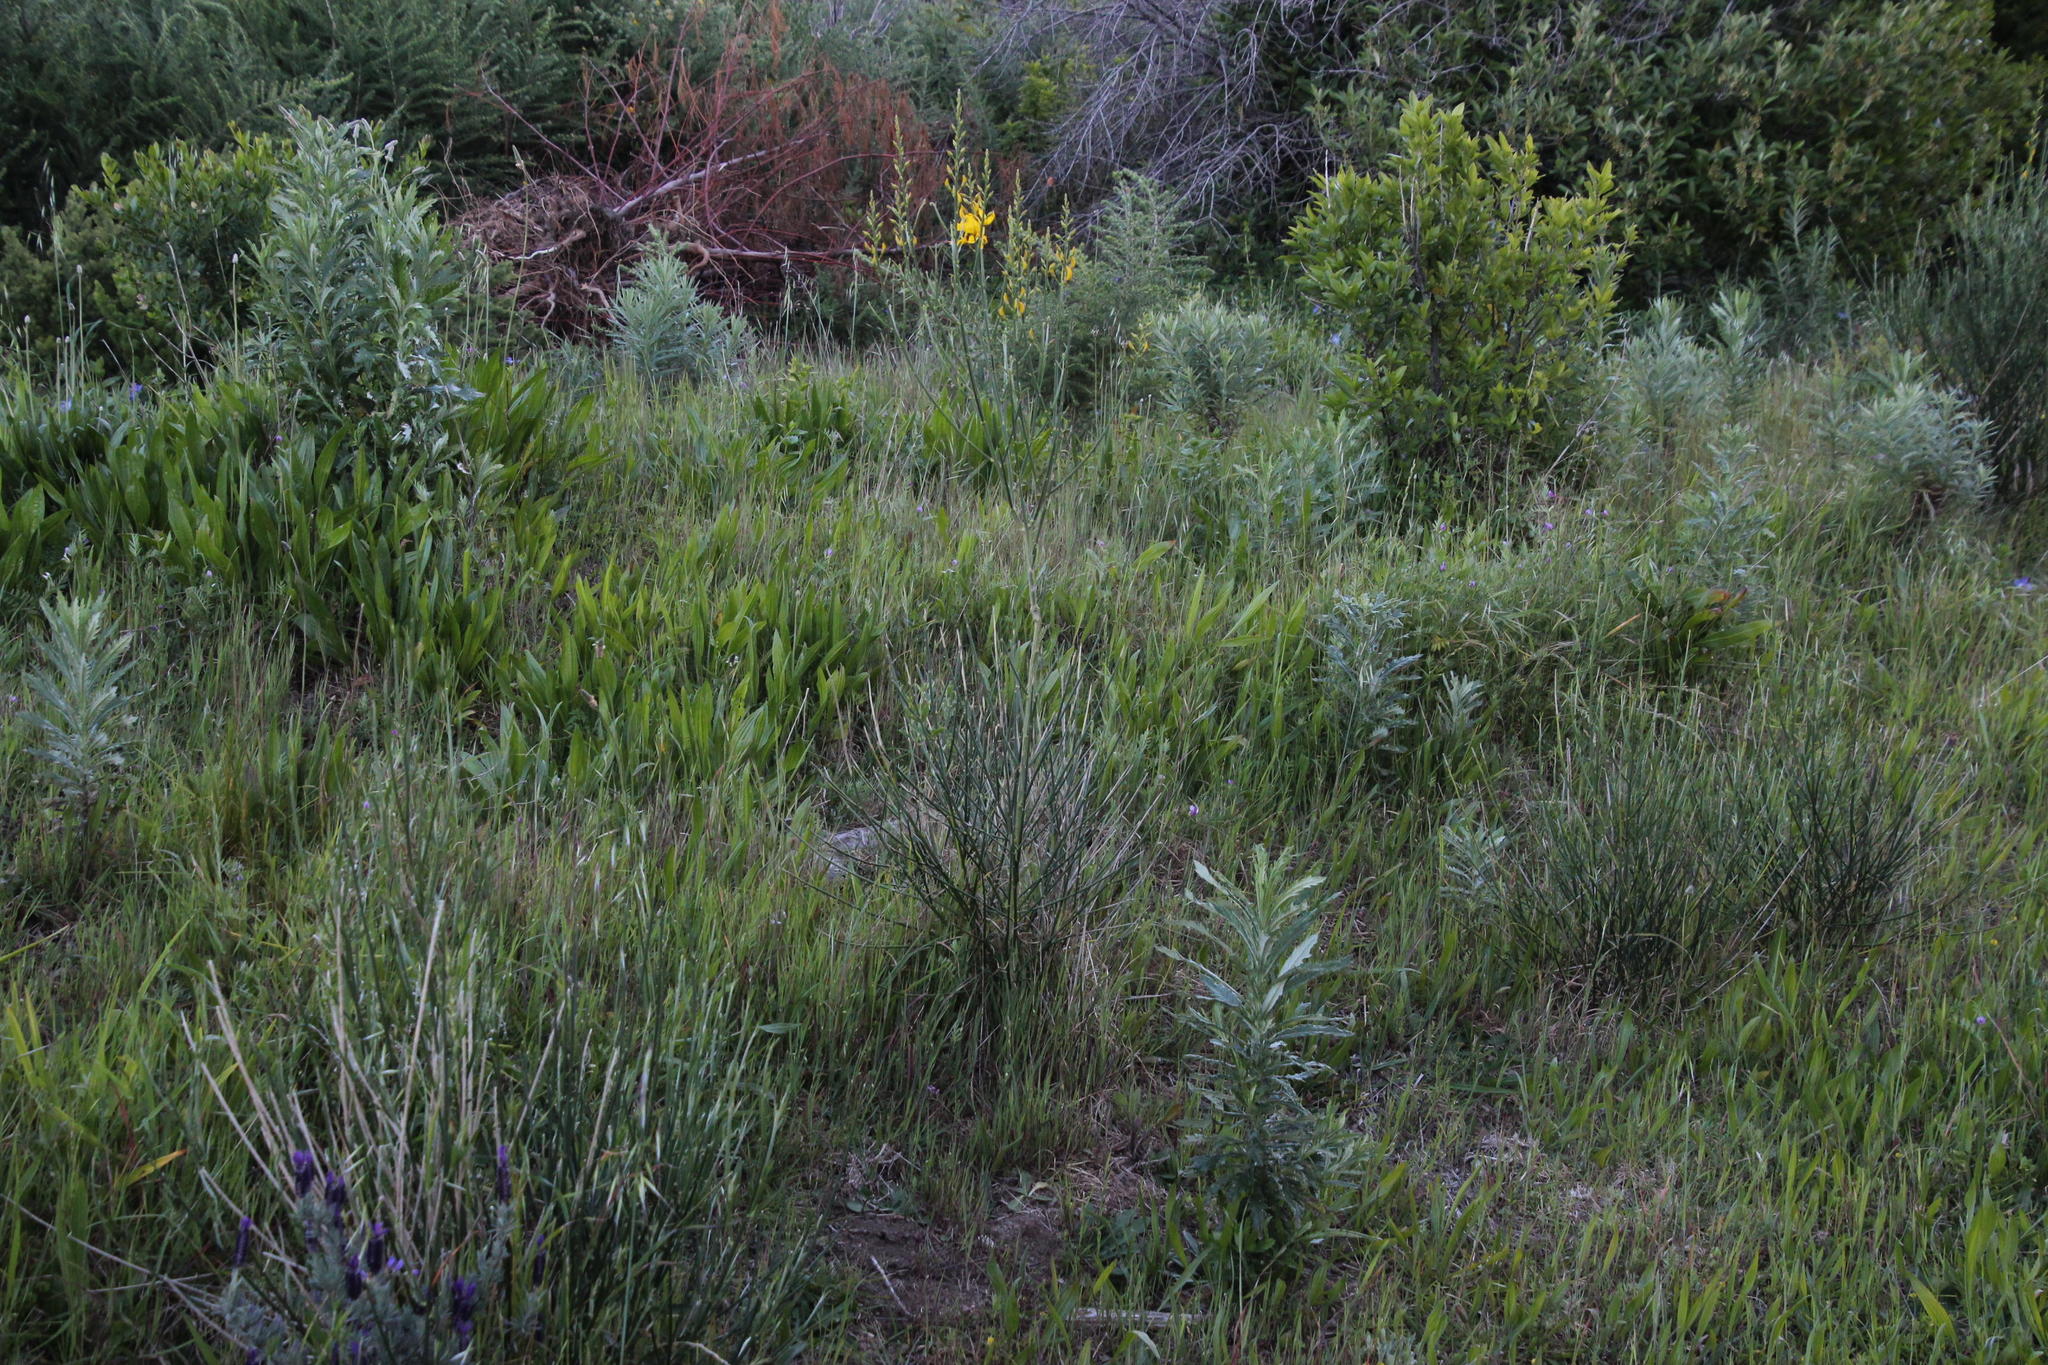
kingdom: Plantae
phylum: Tracheophyta
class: Magnoliopsida
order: Fabales
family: Fabaceae
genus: Spartium
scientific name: Spartium junceum
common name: Spanish broom
